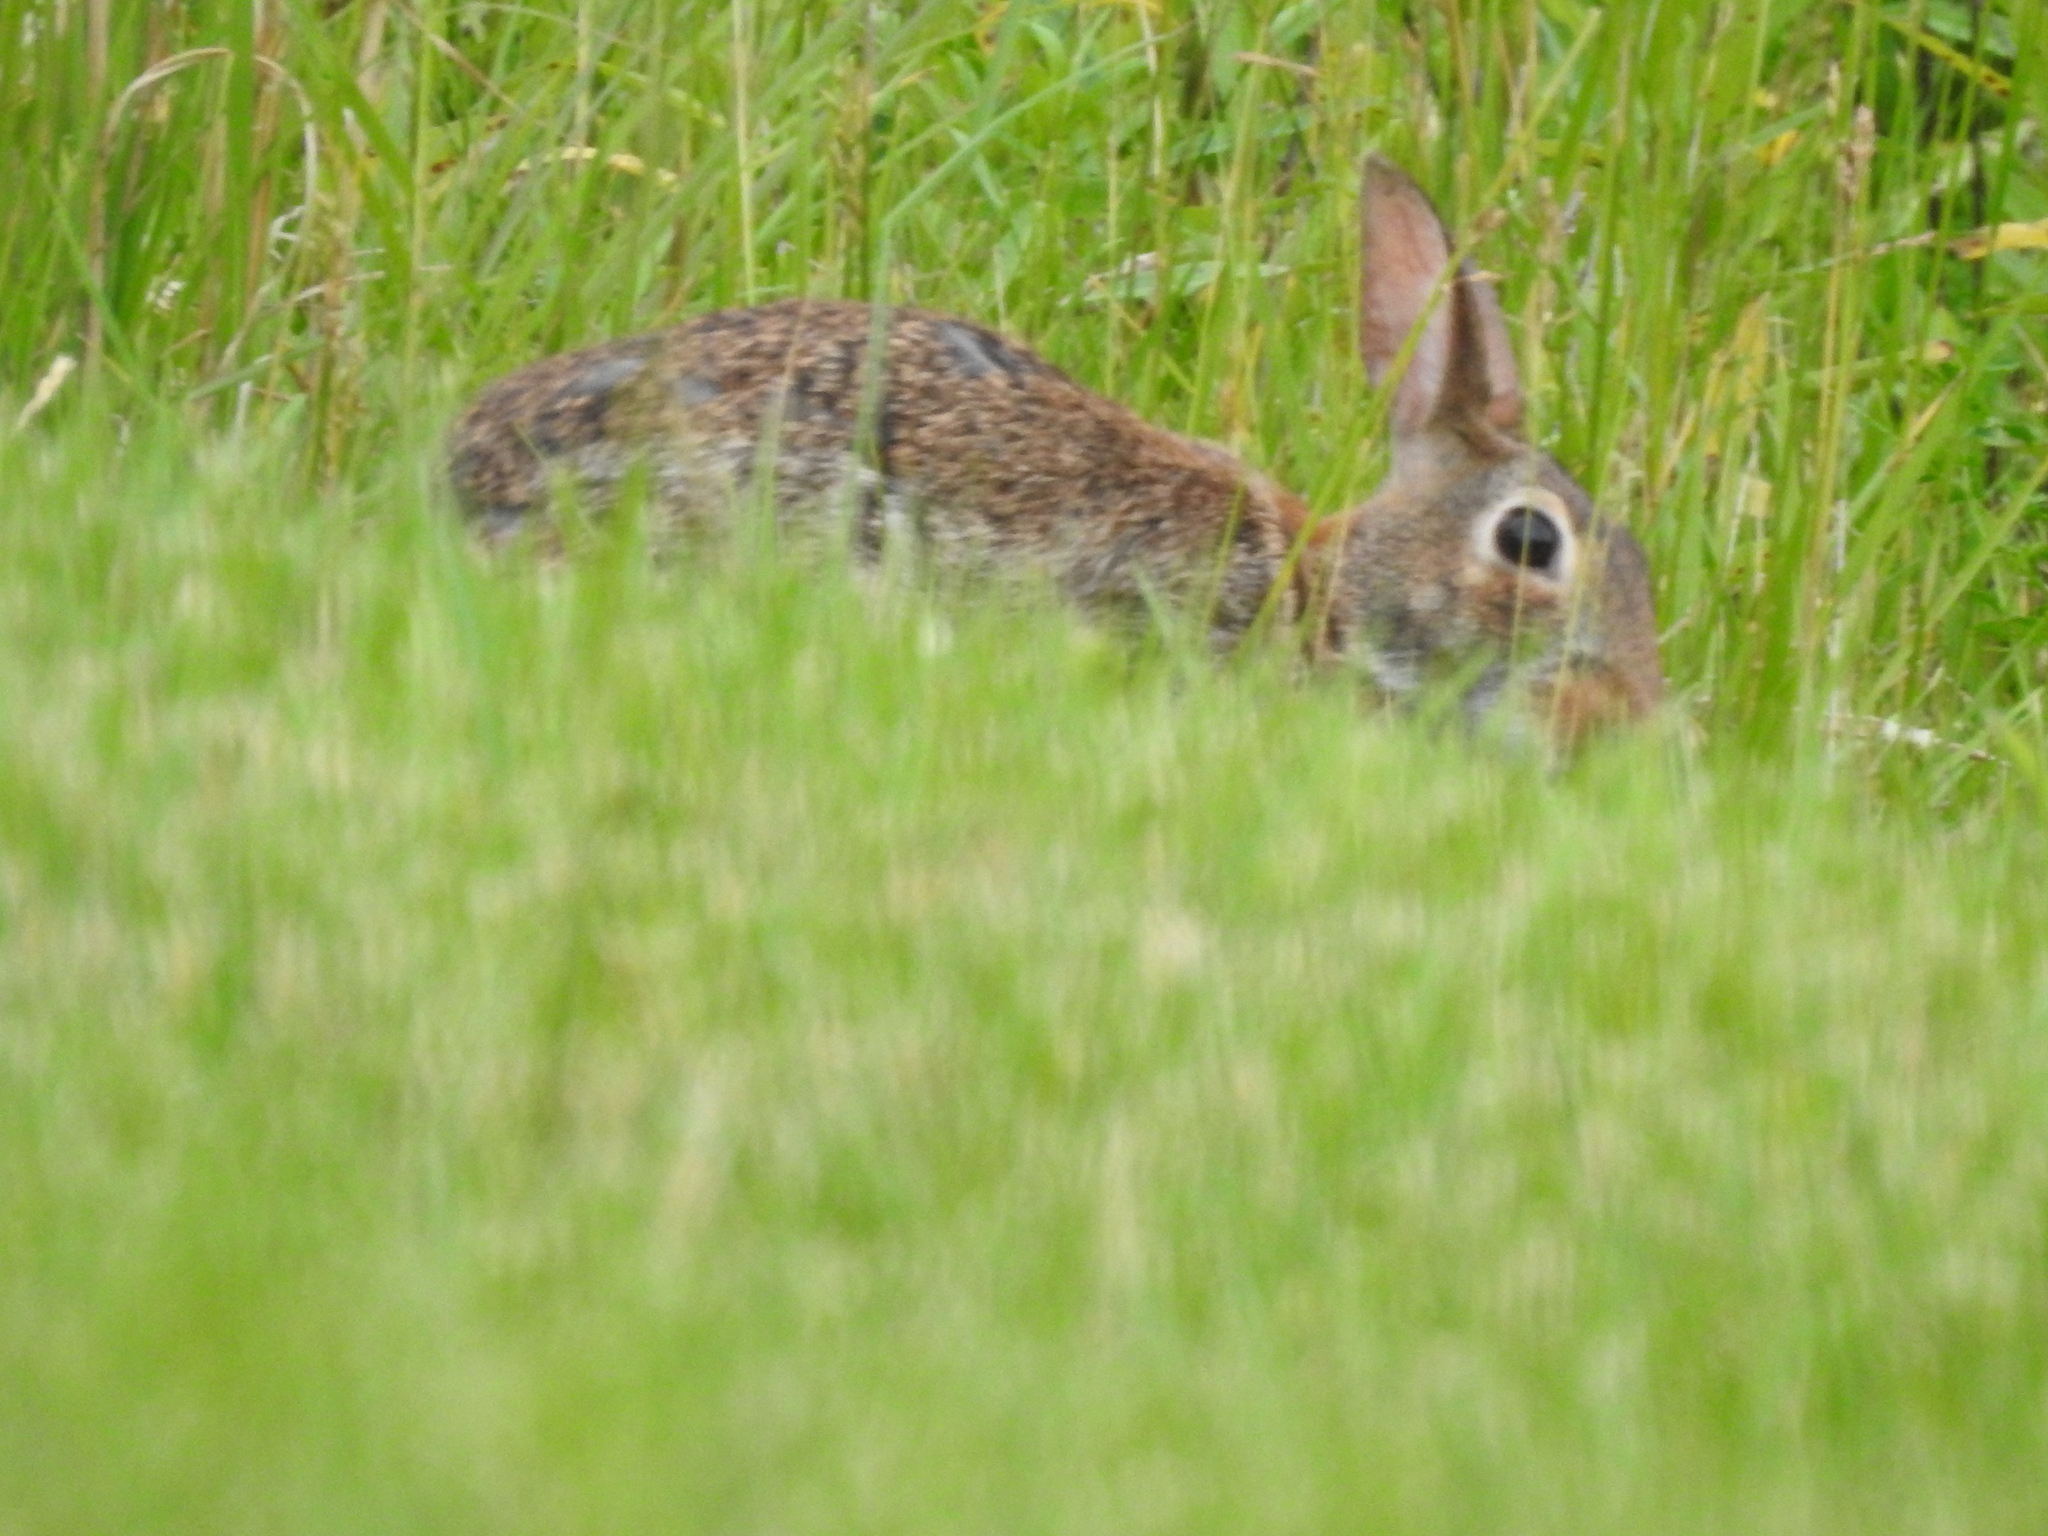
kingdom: Animalia
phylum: Chordata
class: Mammalia
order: Lagomorpha
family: Leporidae
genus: Sylvilagus
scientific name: Sylvilagus floridanus
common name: Eastern cottontail
